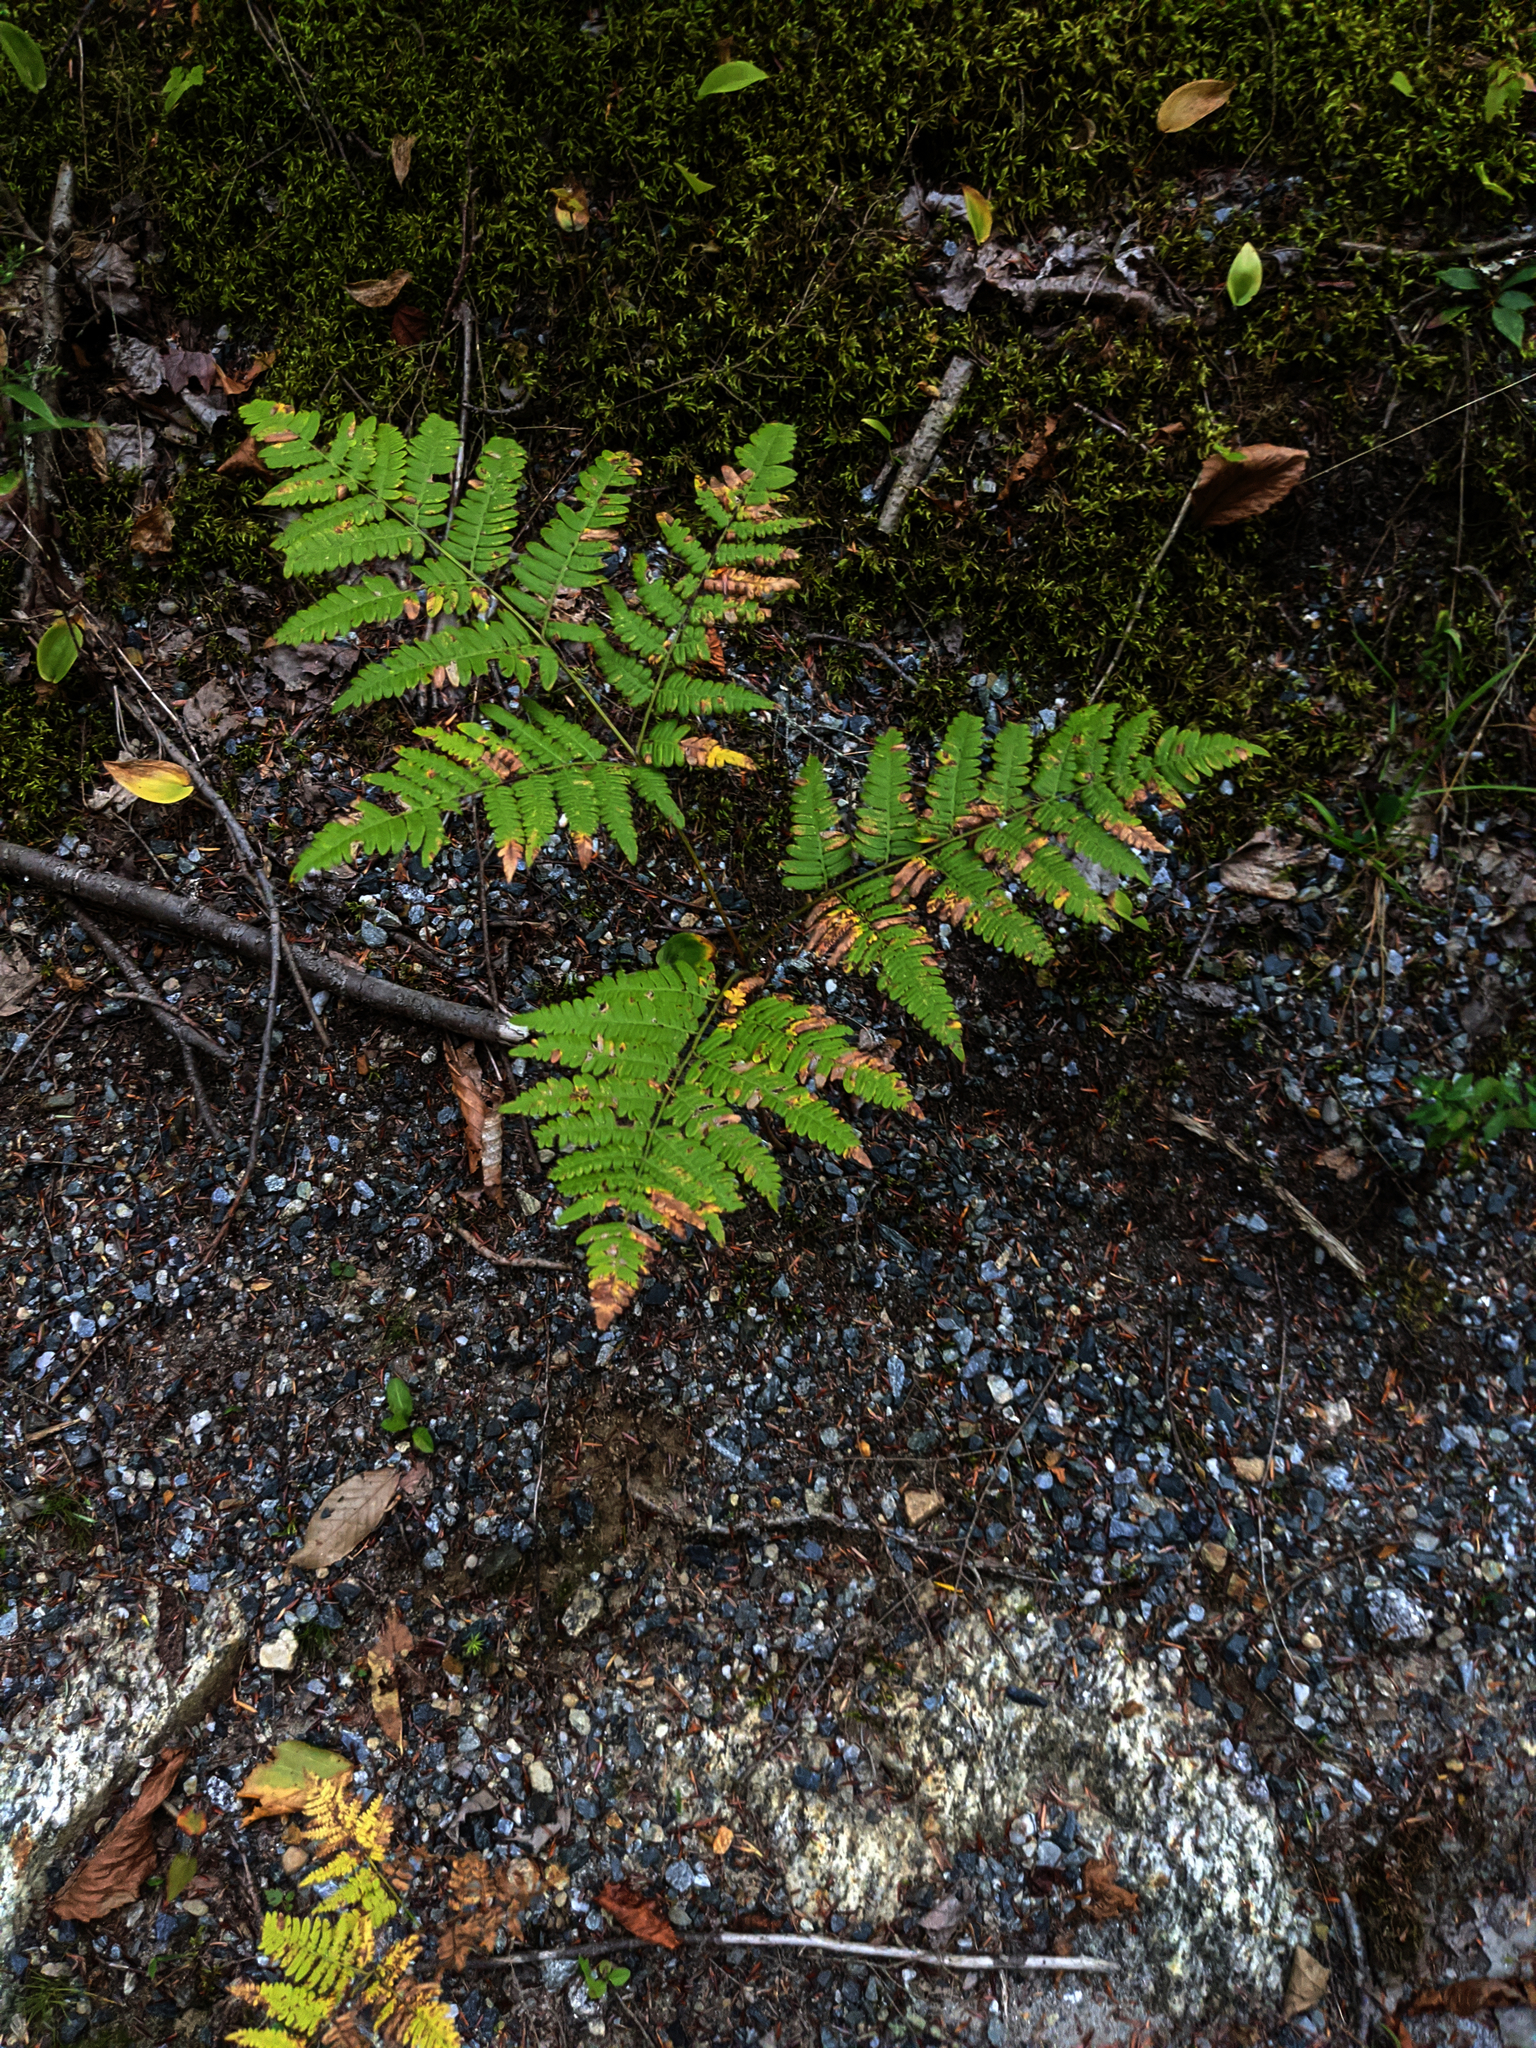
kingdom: Plantae
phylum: Tracheophyta
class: Polypodiopsida
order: Polypodiales
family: Dennstaedtiaceae
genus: Pteridium
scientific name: Pteridium aquilinum
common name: Bracken
